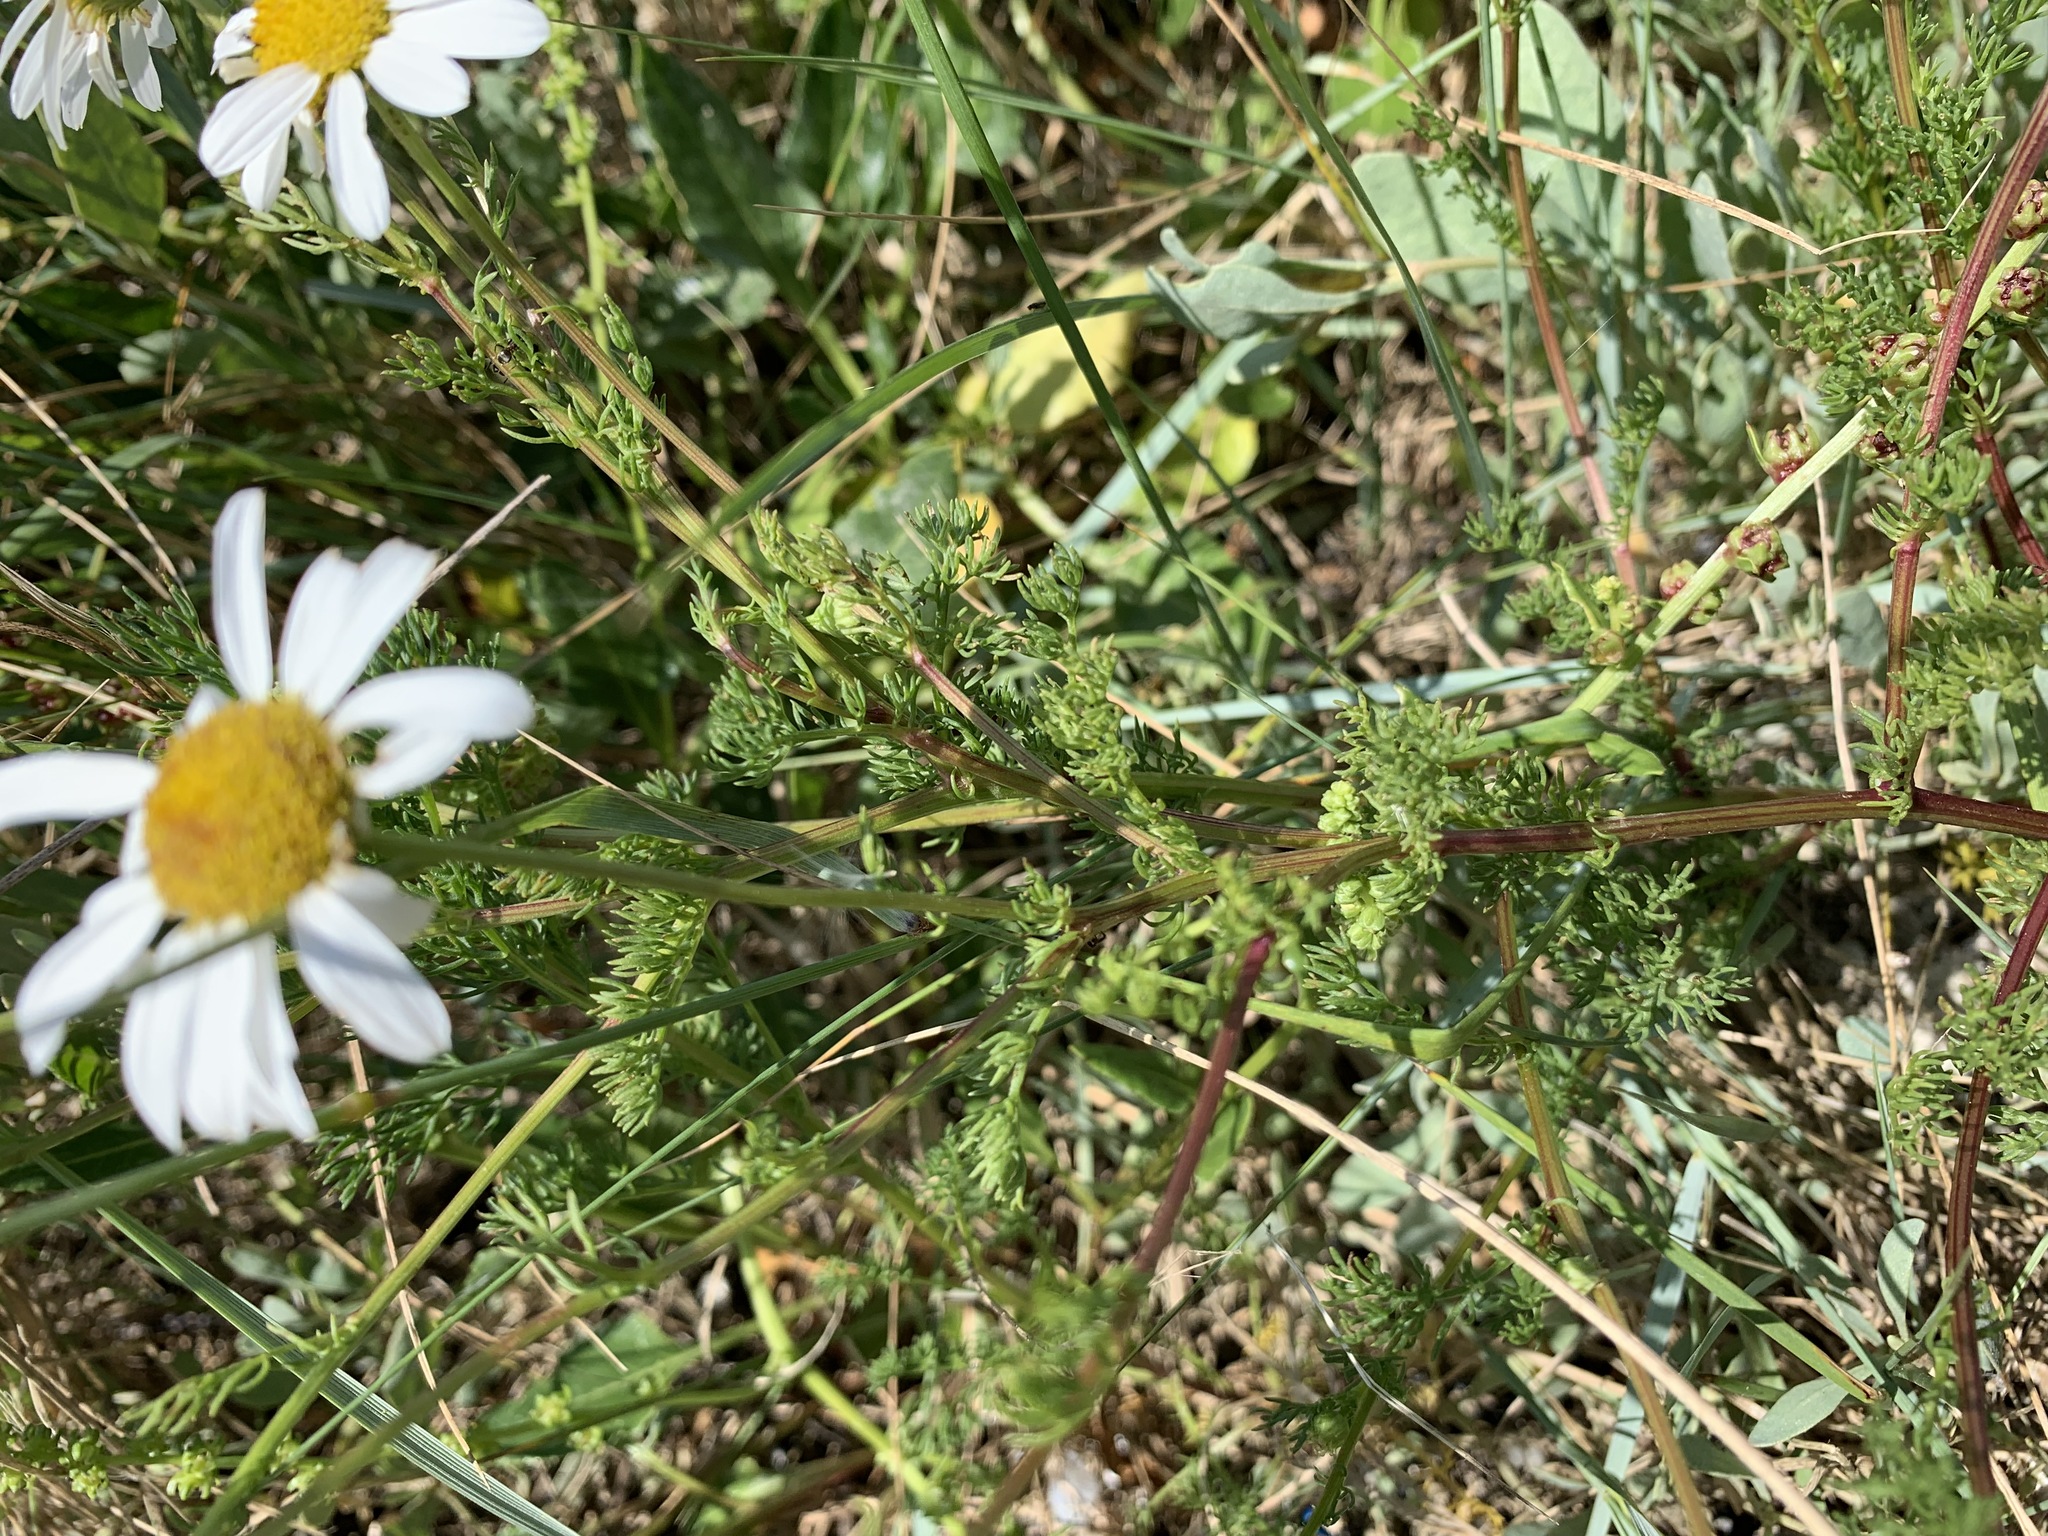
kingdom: Plantae
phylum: Tracheophyta
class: Magnoliopsida
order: Asterales
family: Asteraceae
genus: Tripleurospermum
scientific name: Tripleurospermum maritimum
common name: Sea mayweed
